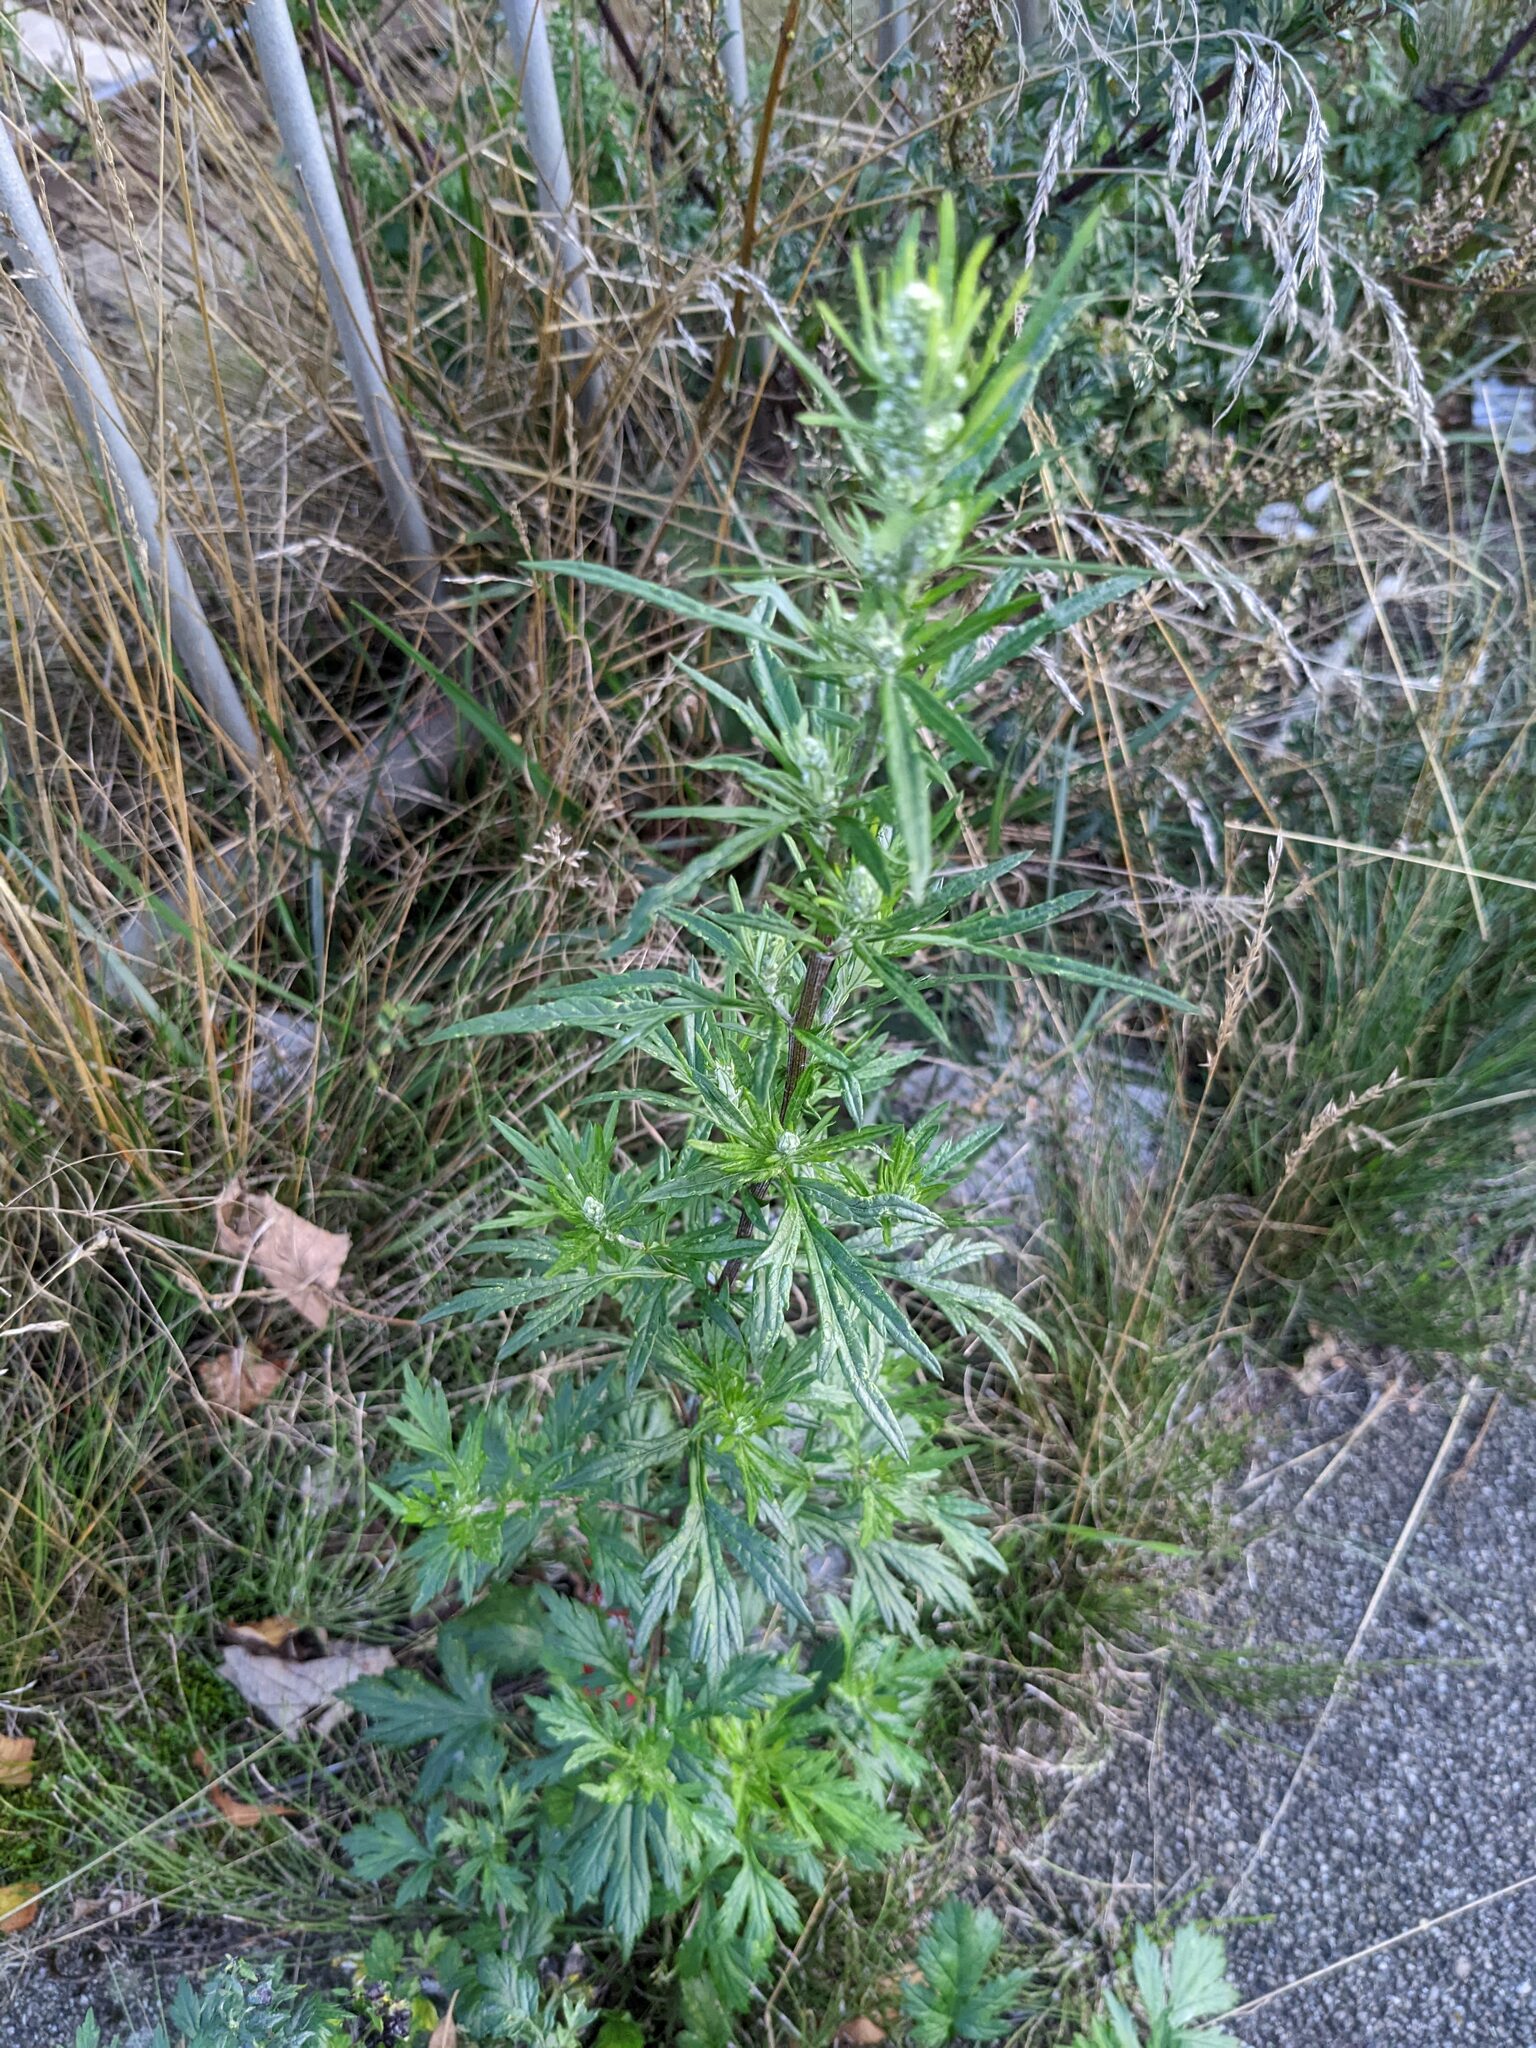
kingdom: Plantae
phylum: Tracheophyta
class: Magnoliopsida
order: Asterales
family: Asteraceae
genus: Artemisia
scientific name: Artemisia vulgaris
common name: Mugwort
